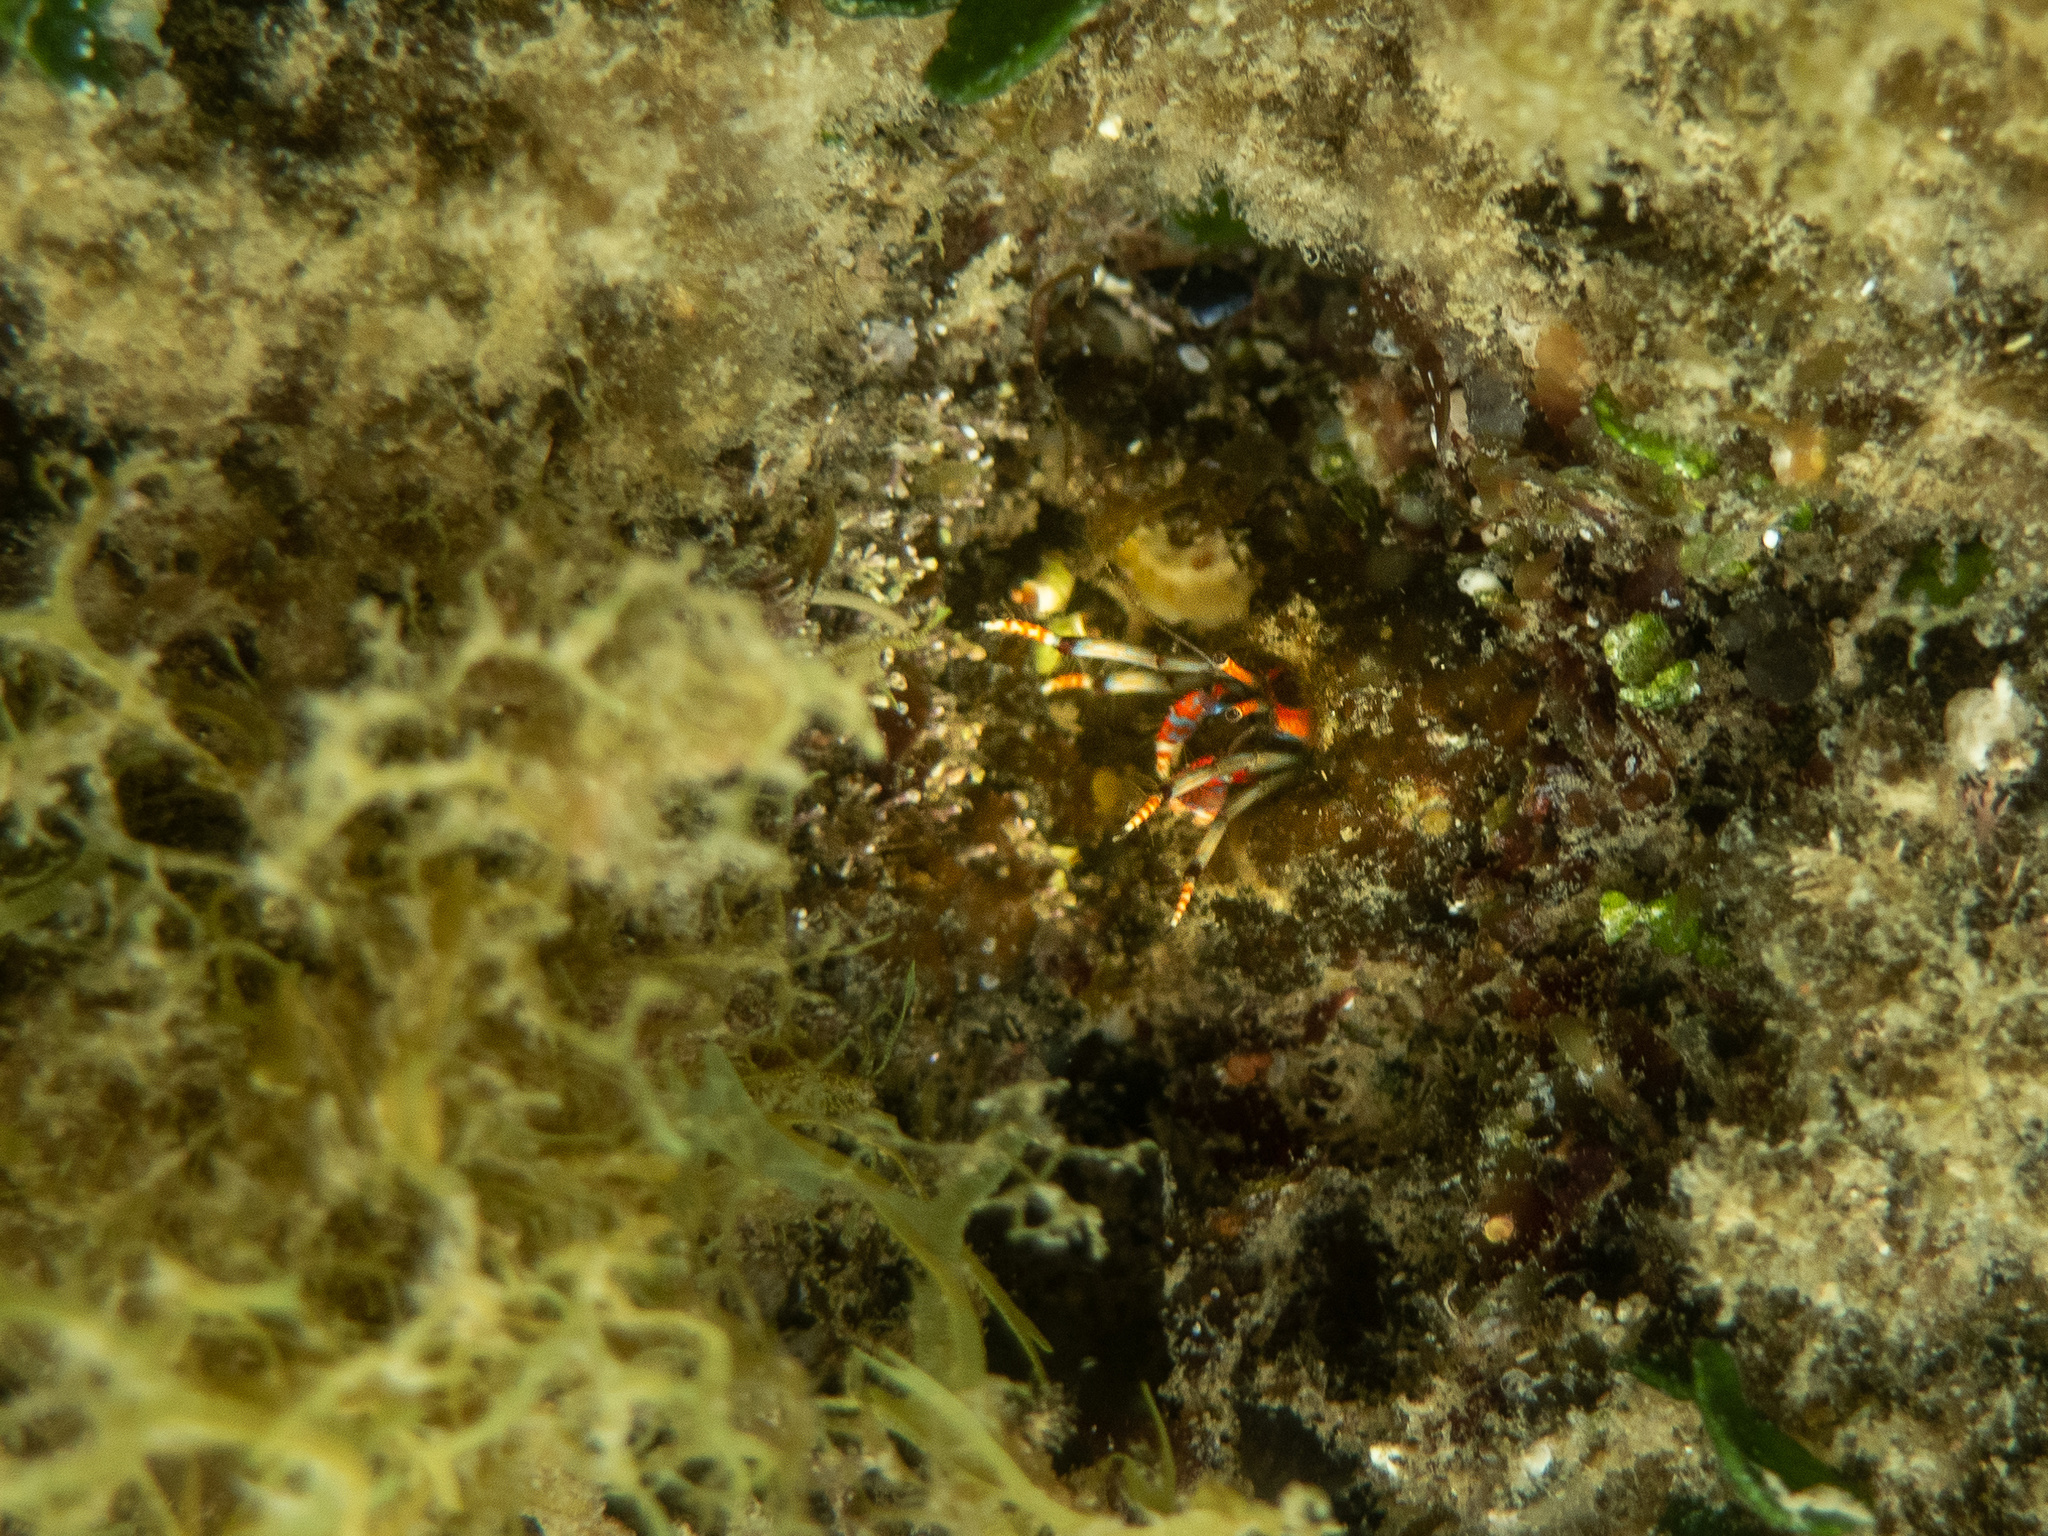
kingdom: Animalia
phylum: Arthropoda
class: Malacostraca
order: Decapoda
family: Diogenidae
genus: Calcinus
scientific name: Calcinus tubularis
